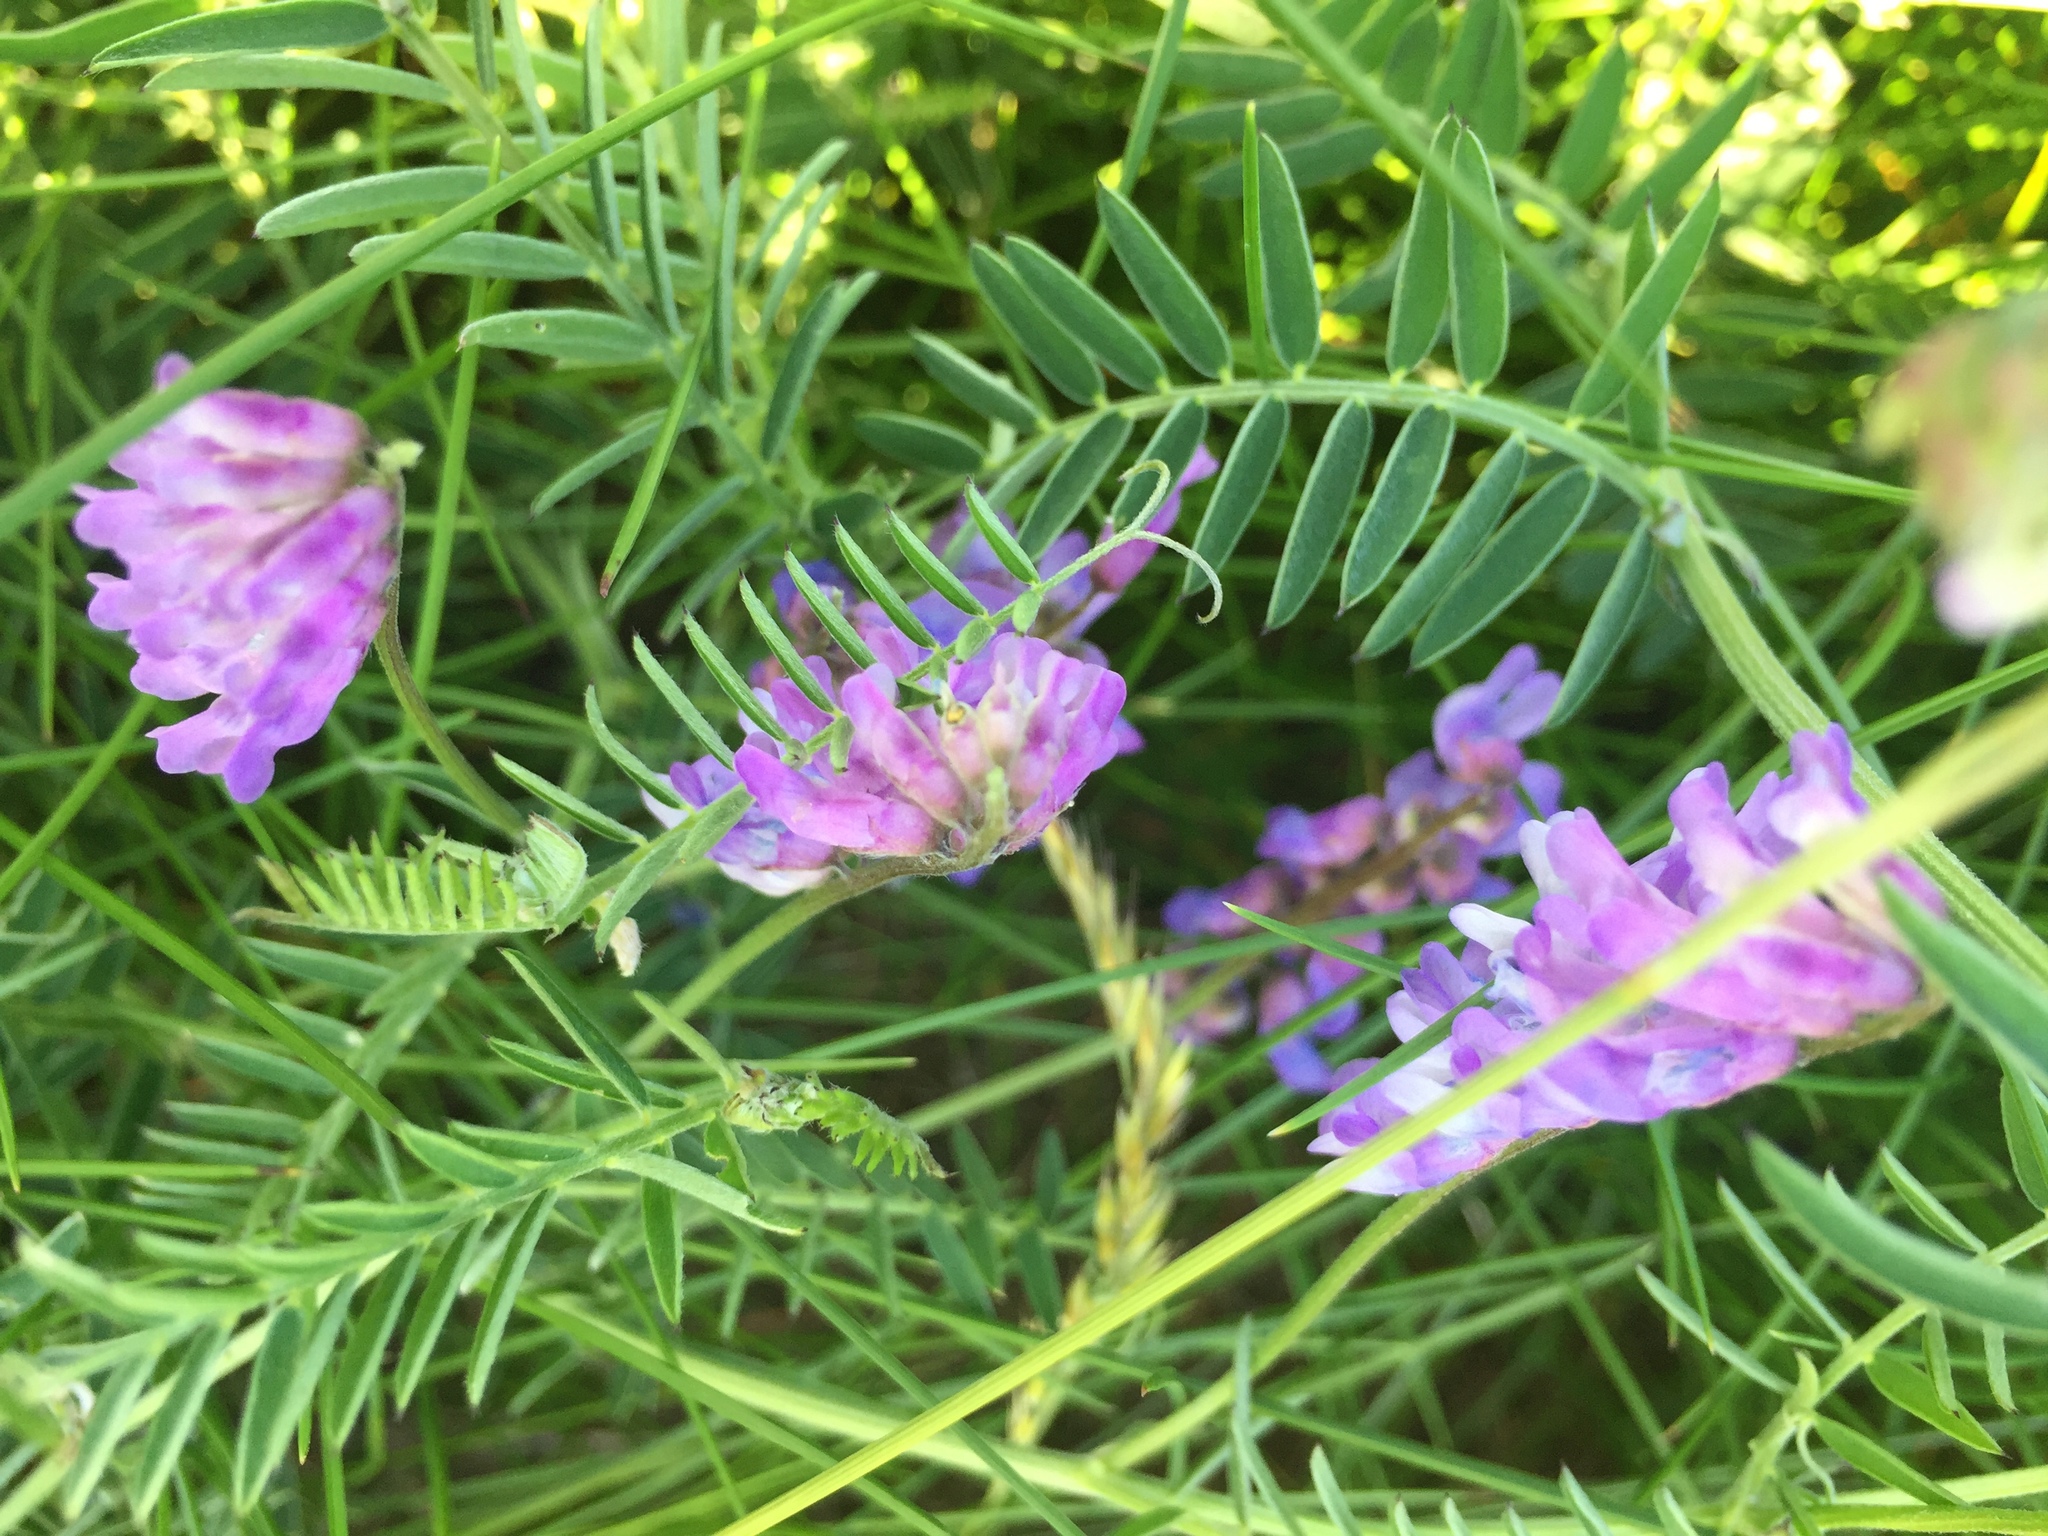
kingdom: Plantae
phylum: Tracheophyta
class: Magnoliopsida
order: Fabales
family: Fabaceae
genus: Vicia
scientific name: Vicia cracca
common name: Bird vetch
